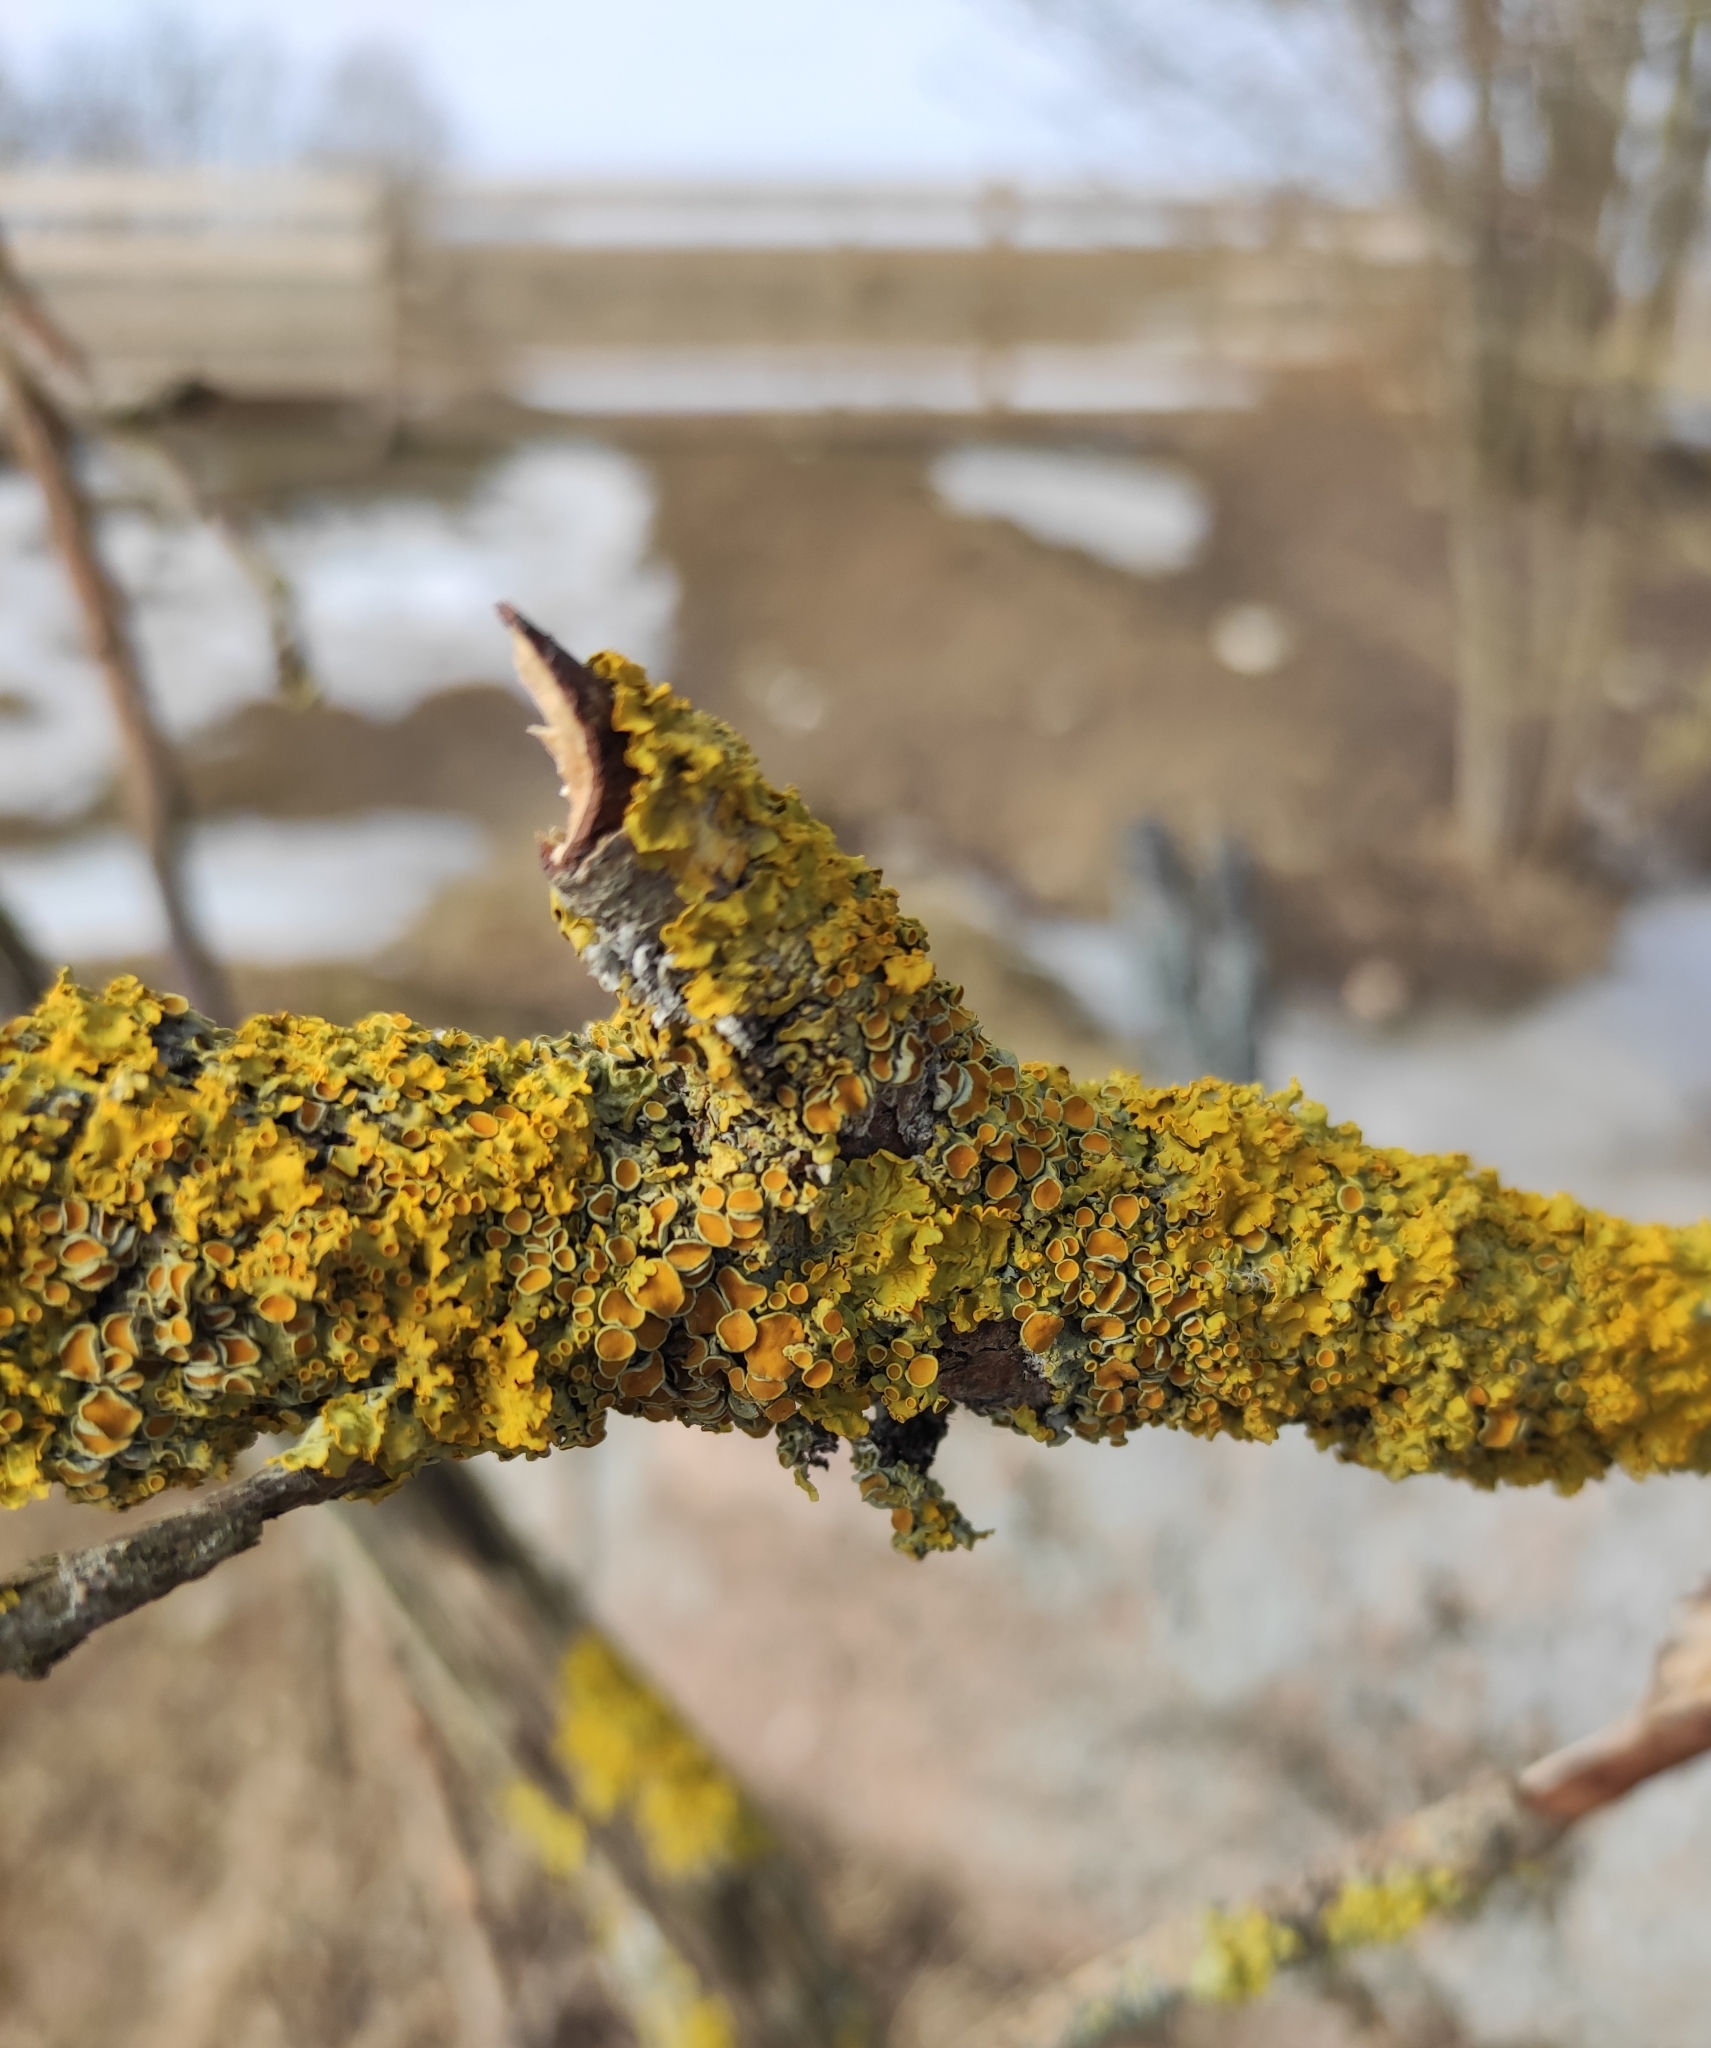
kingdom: Fungi
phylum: Ascomycota
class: Lecanoromycetes
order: Teloschistales
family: Teloschistaceae
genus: Xanthoria
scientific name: Xanthoria parietina
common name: Common orange lichen
